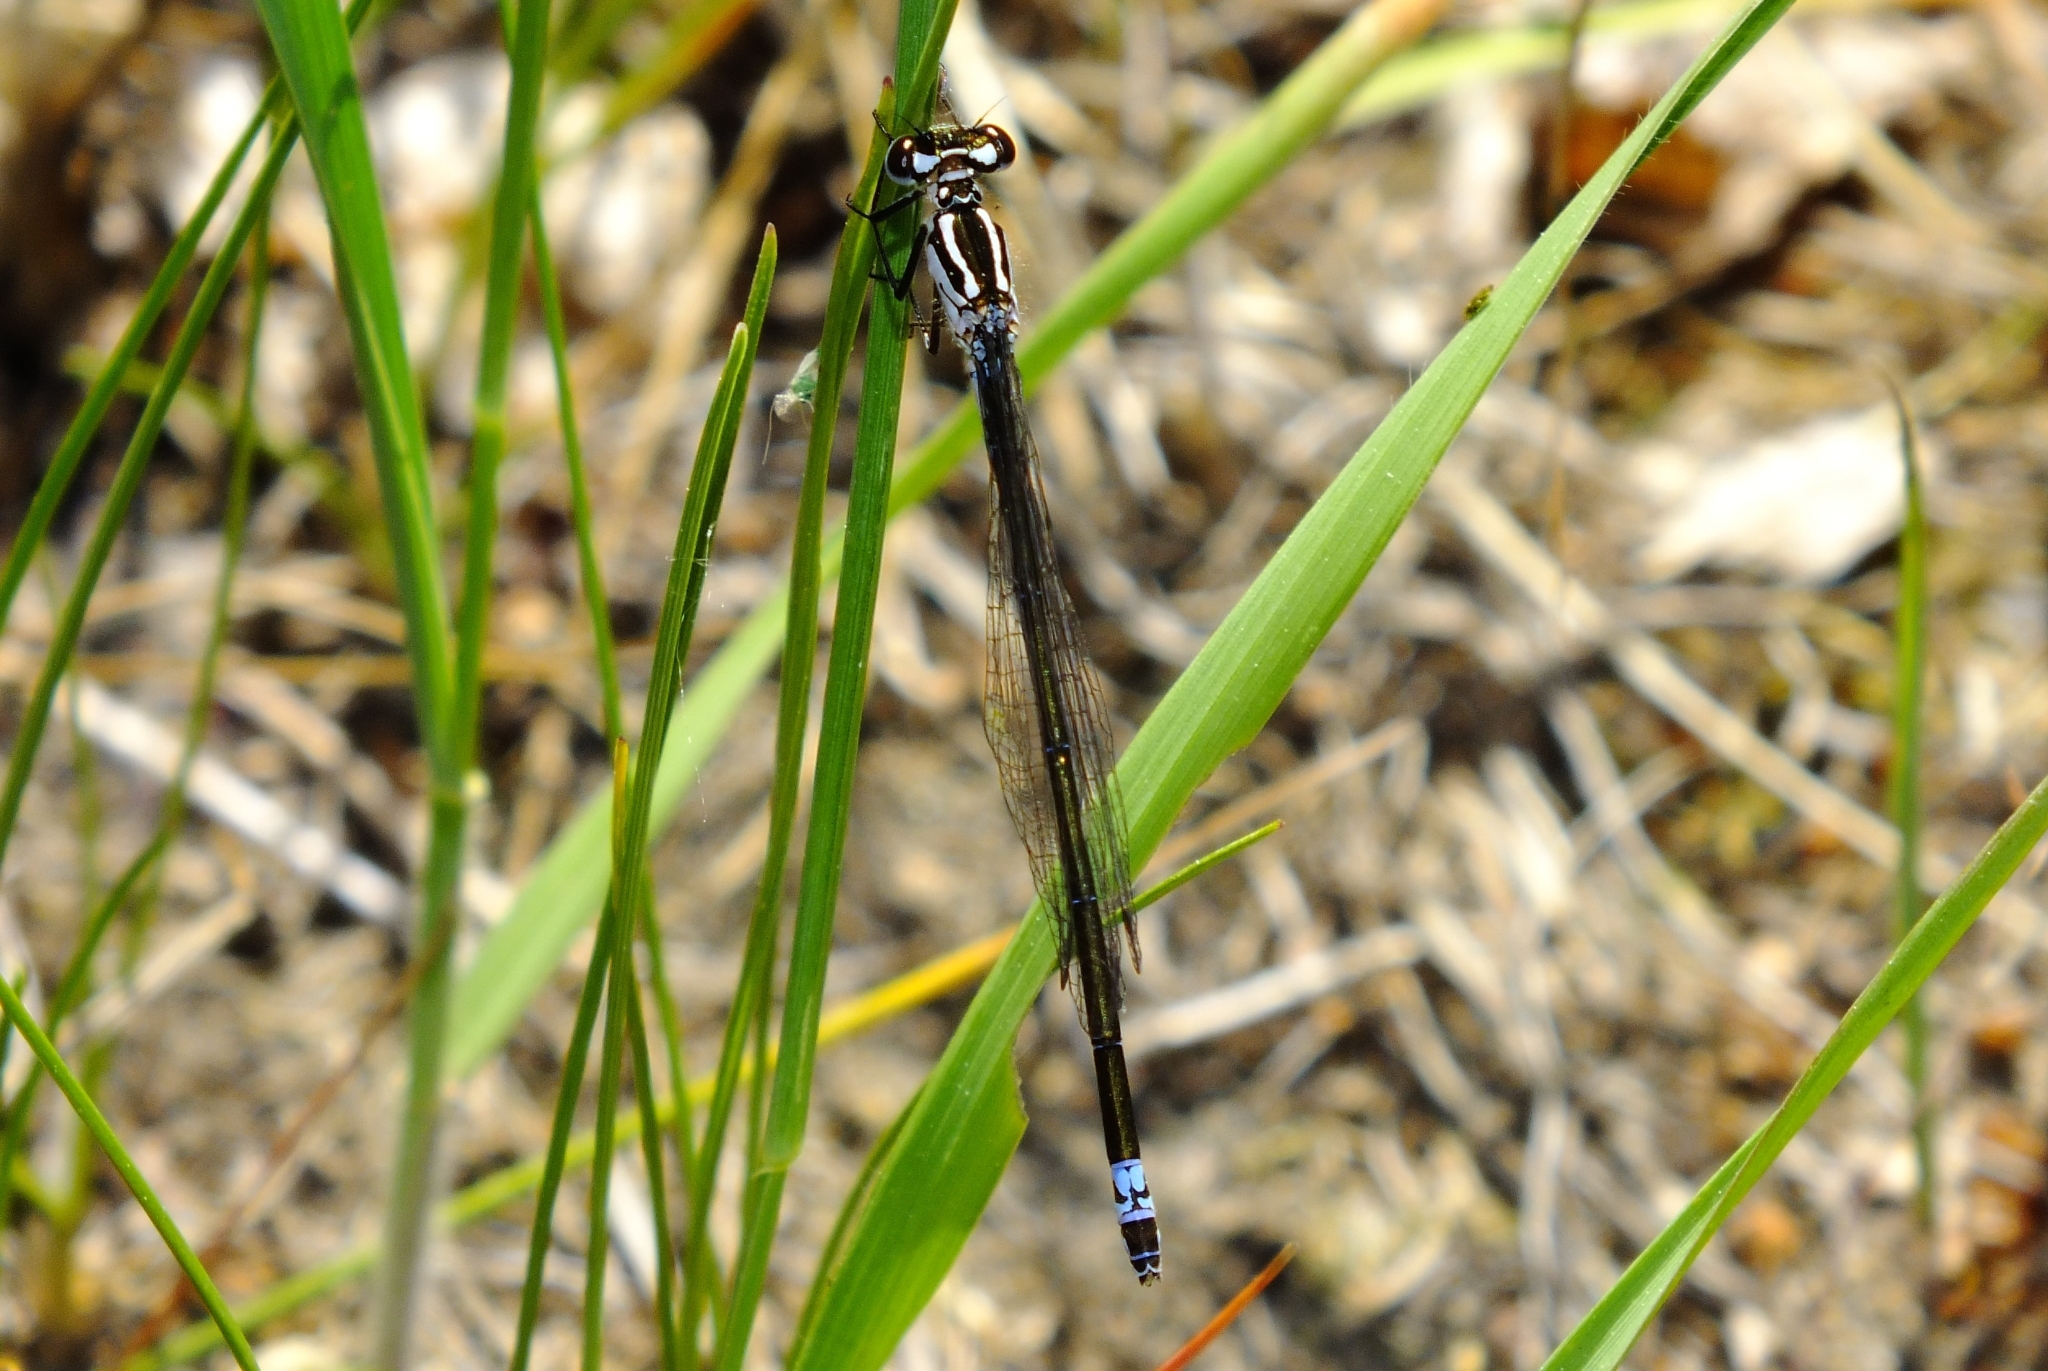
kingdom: Animalia
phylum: Arthropoda
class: Insecta
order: Odonata
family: Coenagrionidae
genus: Coenagrion
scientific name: Coenagrion pulchellum
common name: Variable bluet
